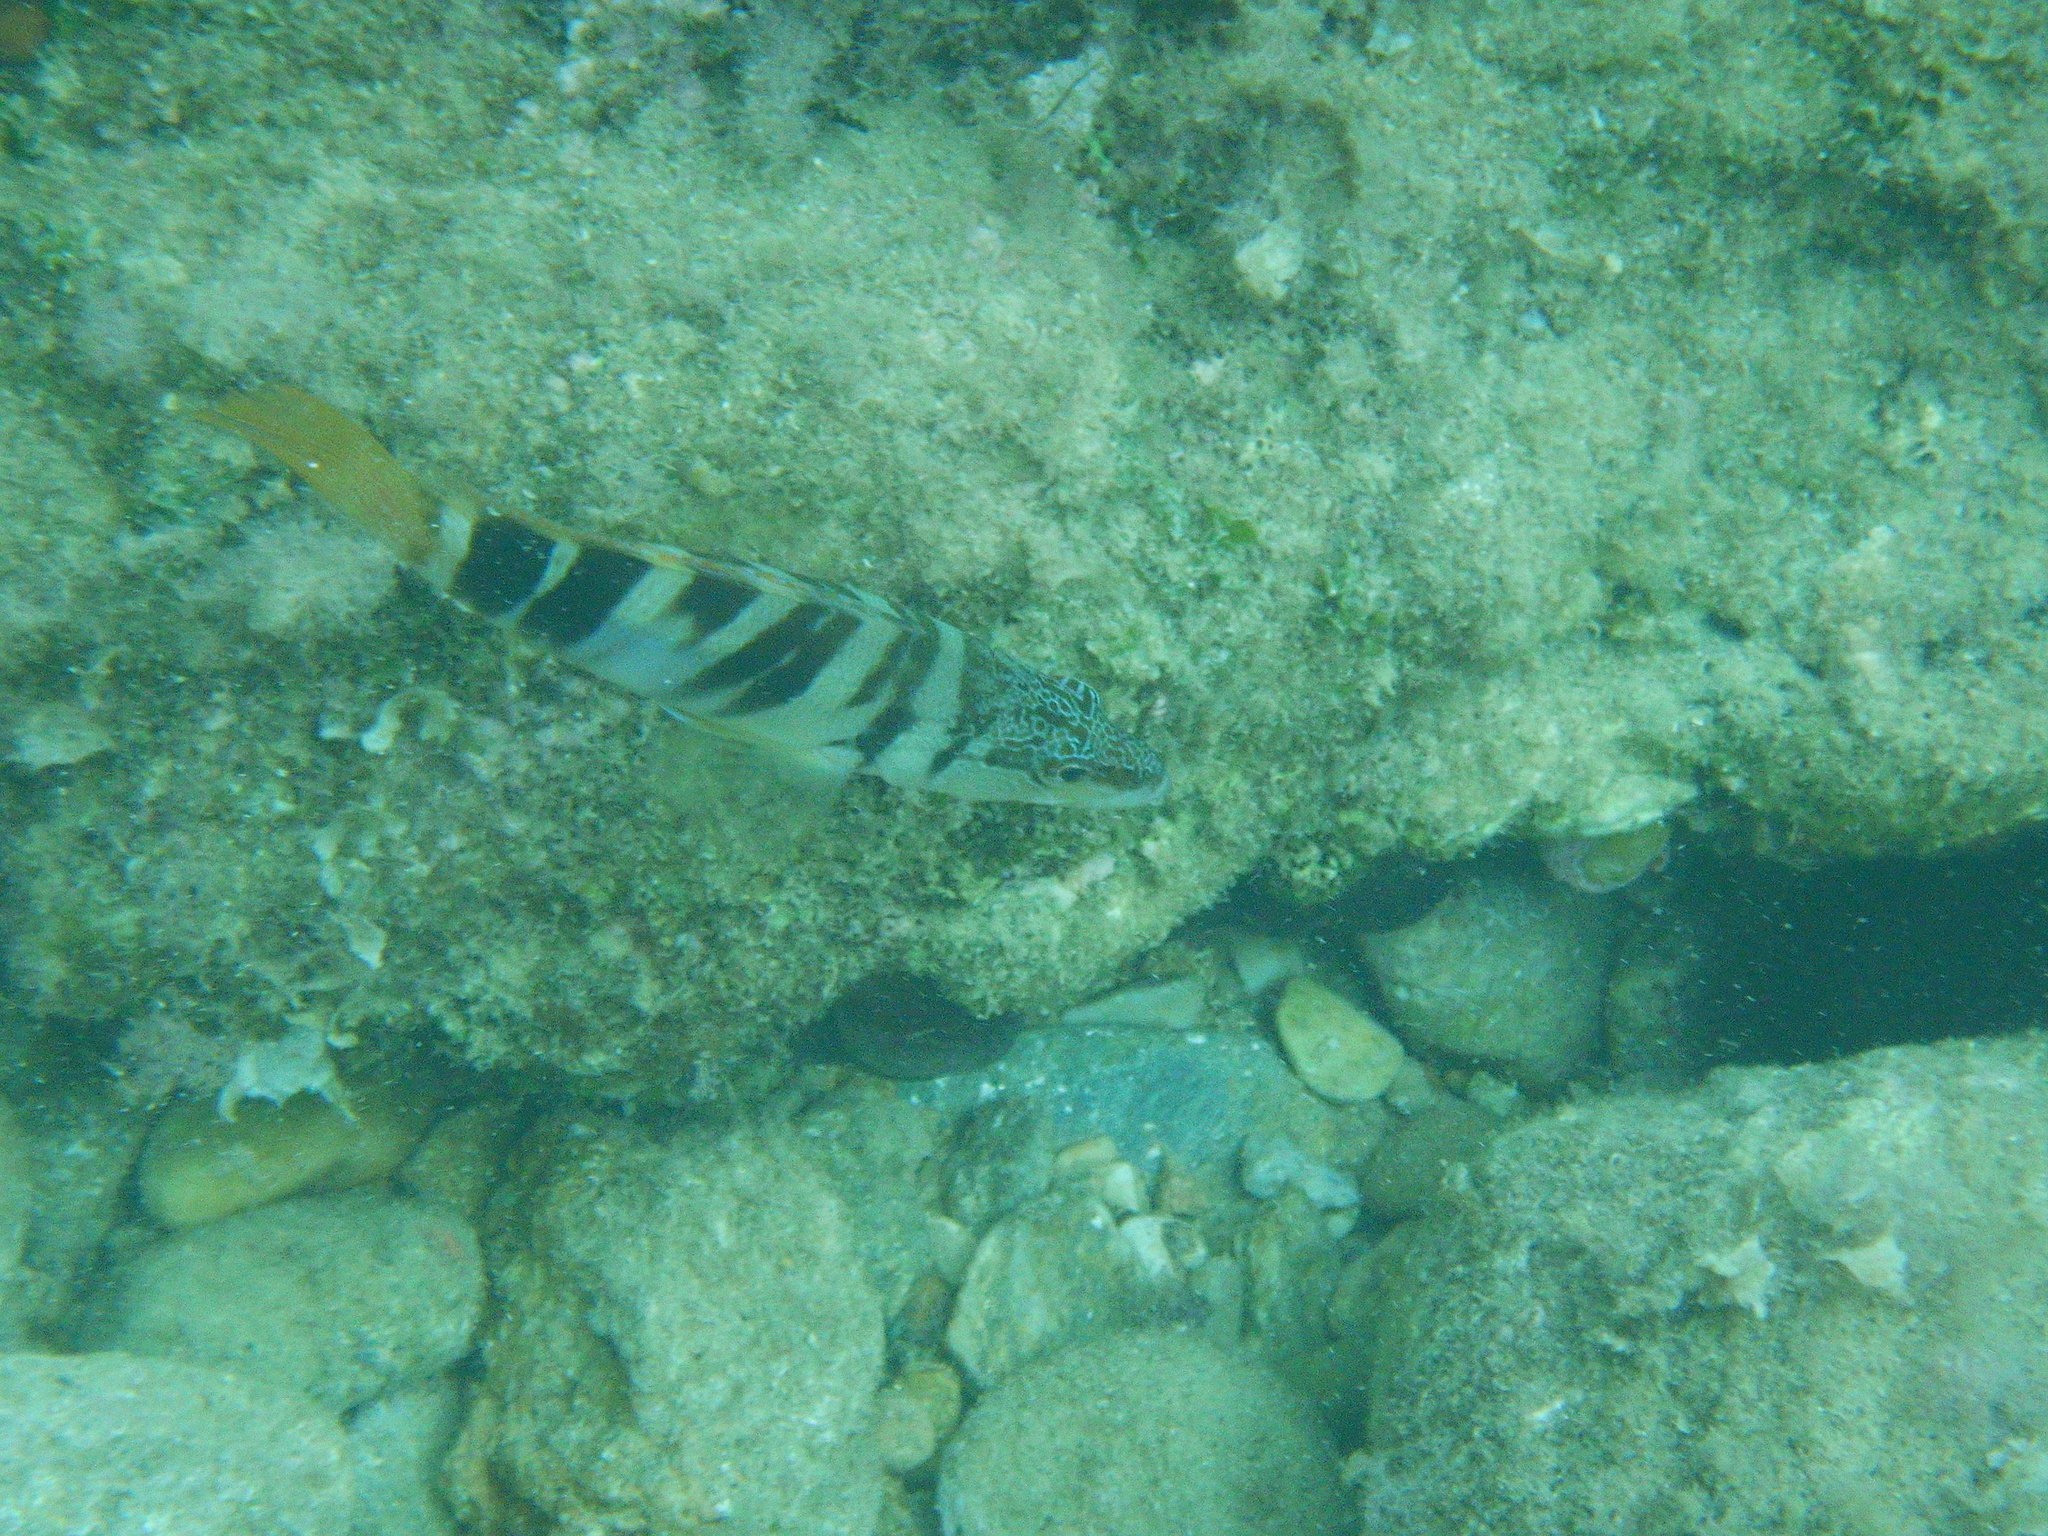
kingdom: Animalia
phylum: Chordata
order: Perciformes
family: Serranidae
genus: Serranus
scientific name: Serranus scriba
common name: Painted comber
